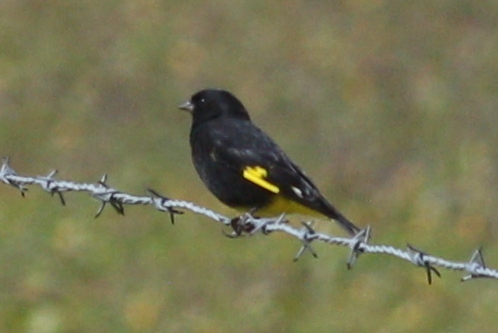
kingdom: Animalia
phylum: Chordata
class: Aves
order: Passeriformes
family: Fringillidae
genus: Spinus
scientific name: Spinus atratus
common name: Black siskin
